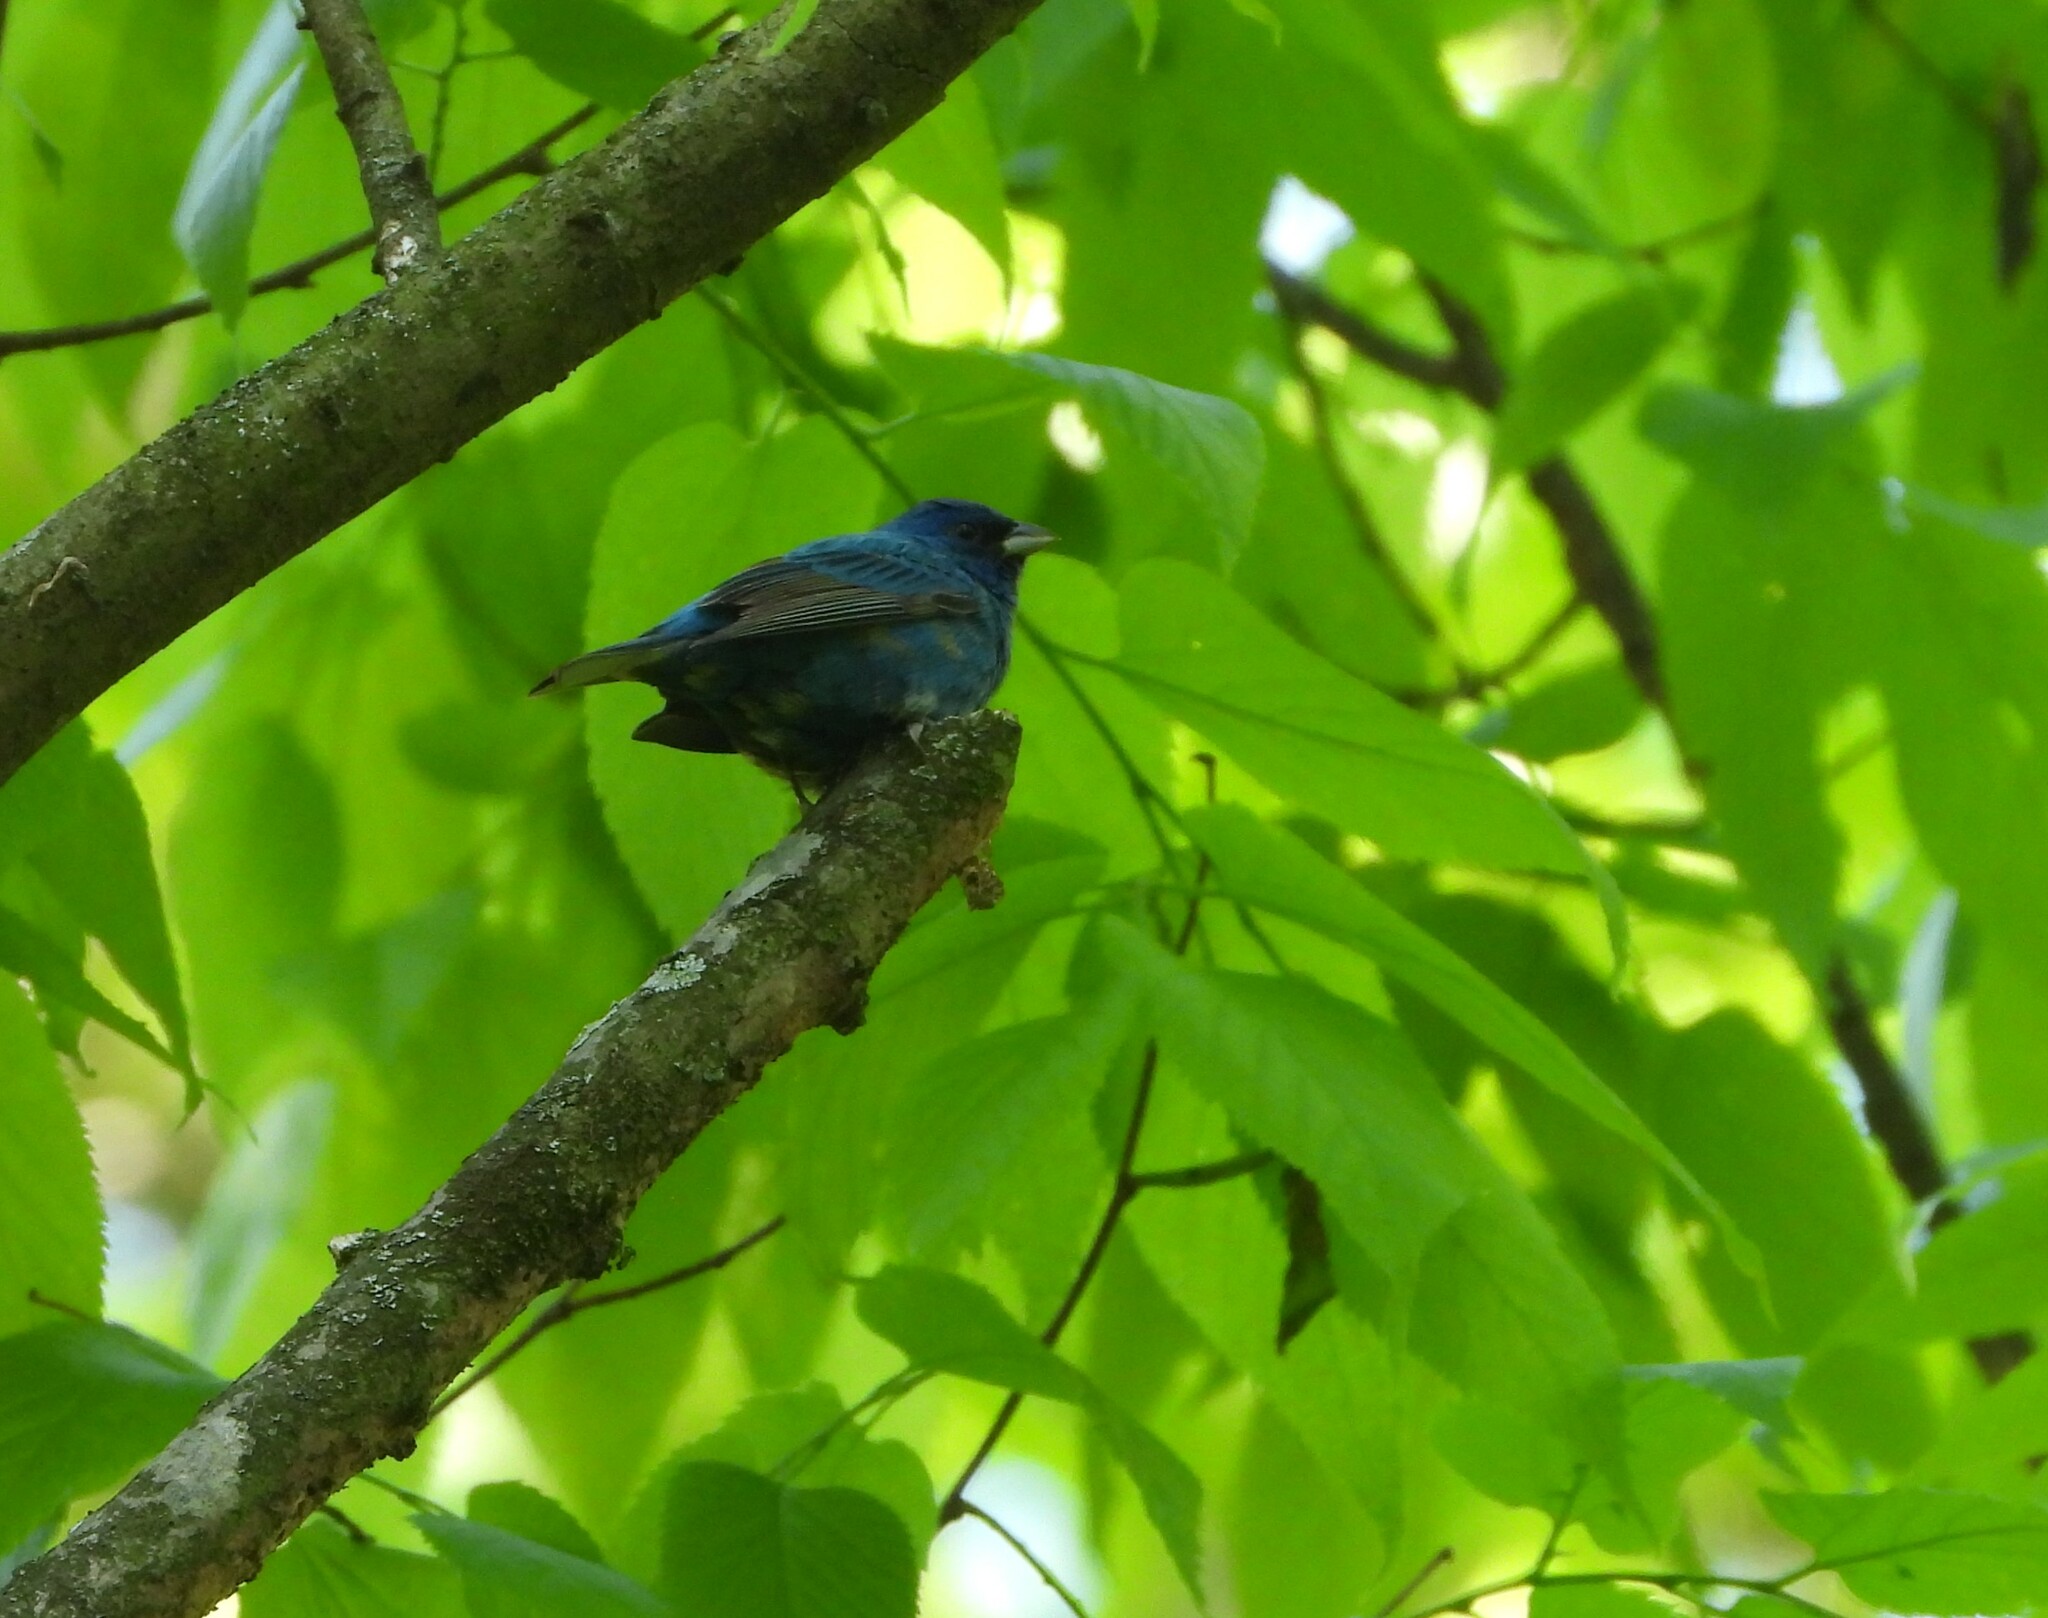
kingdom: Animalia
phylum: Chordata
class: Aves
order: Passeriformes
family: Cardinalidae
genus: Passerina
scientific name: Passerina cyanea
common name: Indigo bunting
